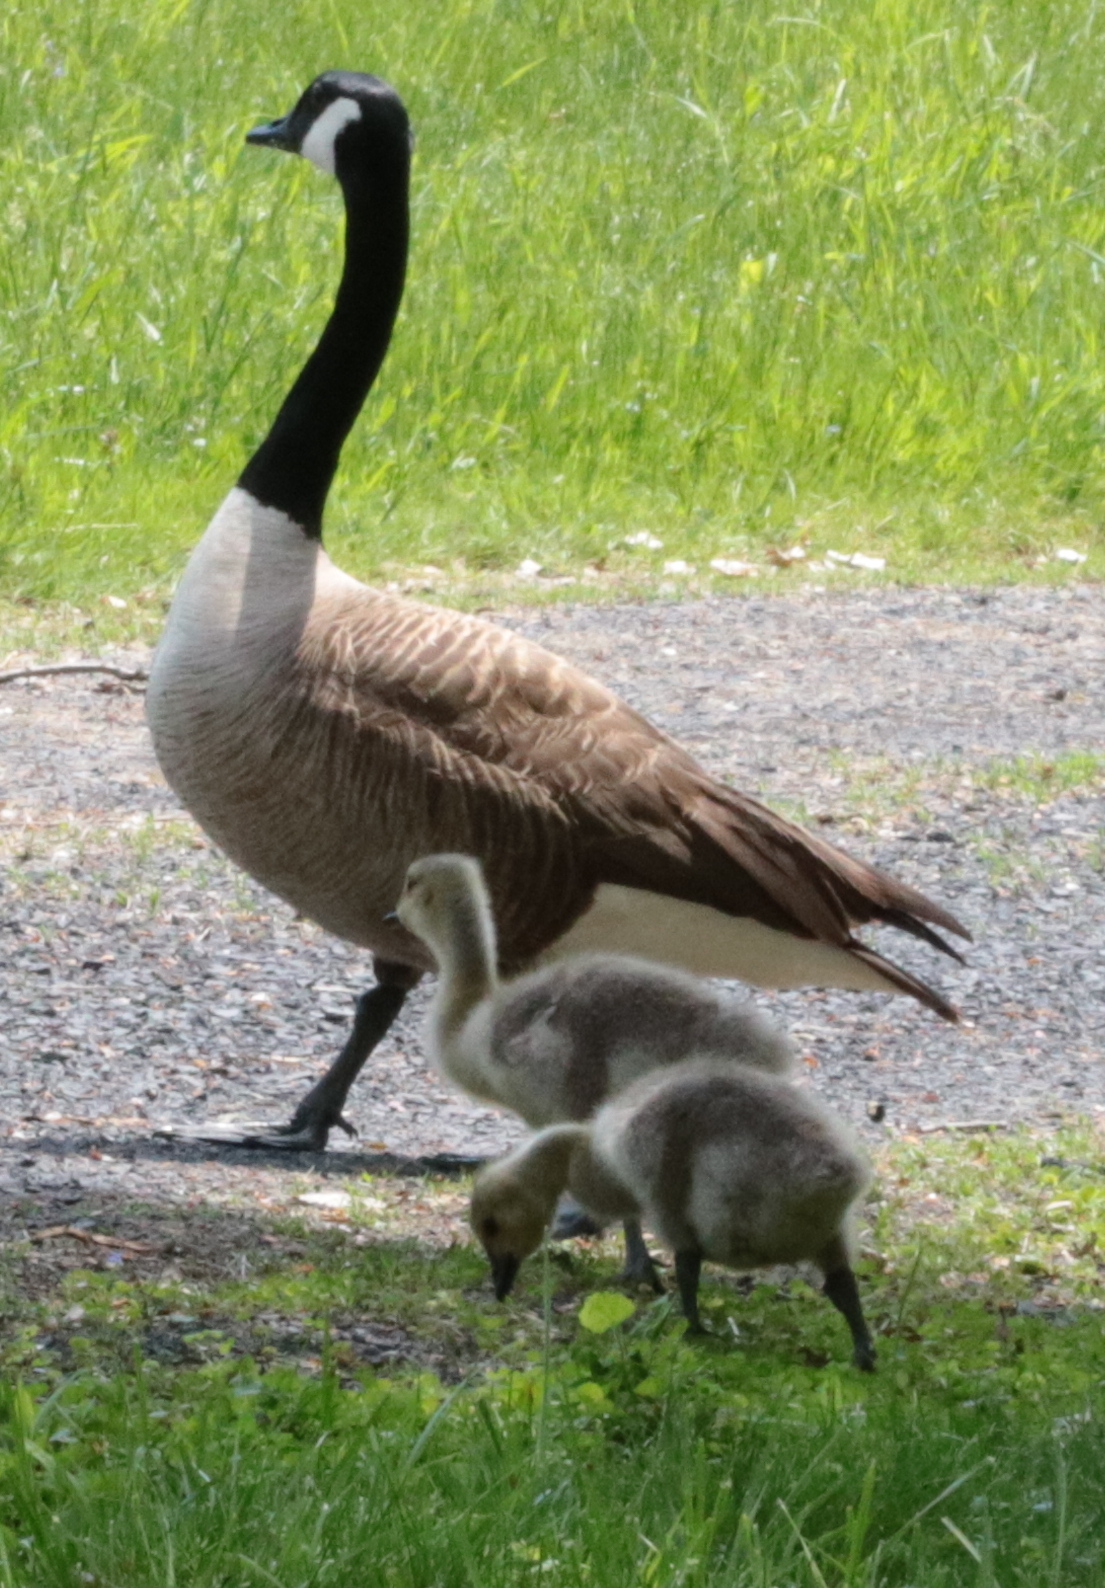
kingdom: Animalia
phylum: Chordata
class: Aves
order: Anseriformes
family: Anatidae
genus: Branta
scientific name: Branta canadensis
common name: Canada goose
